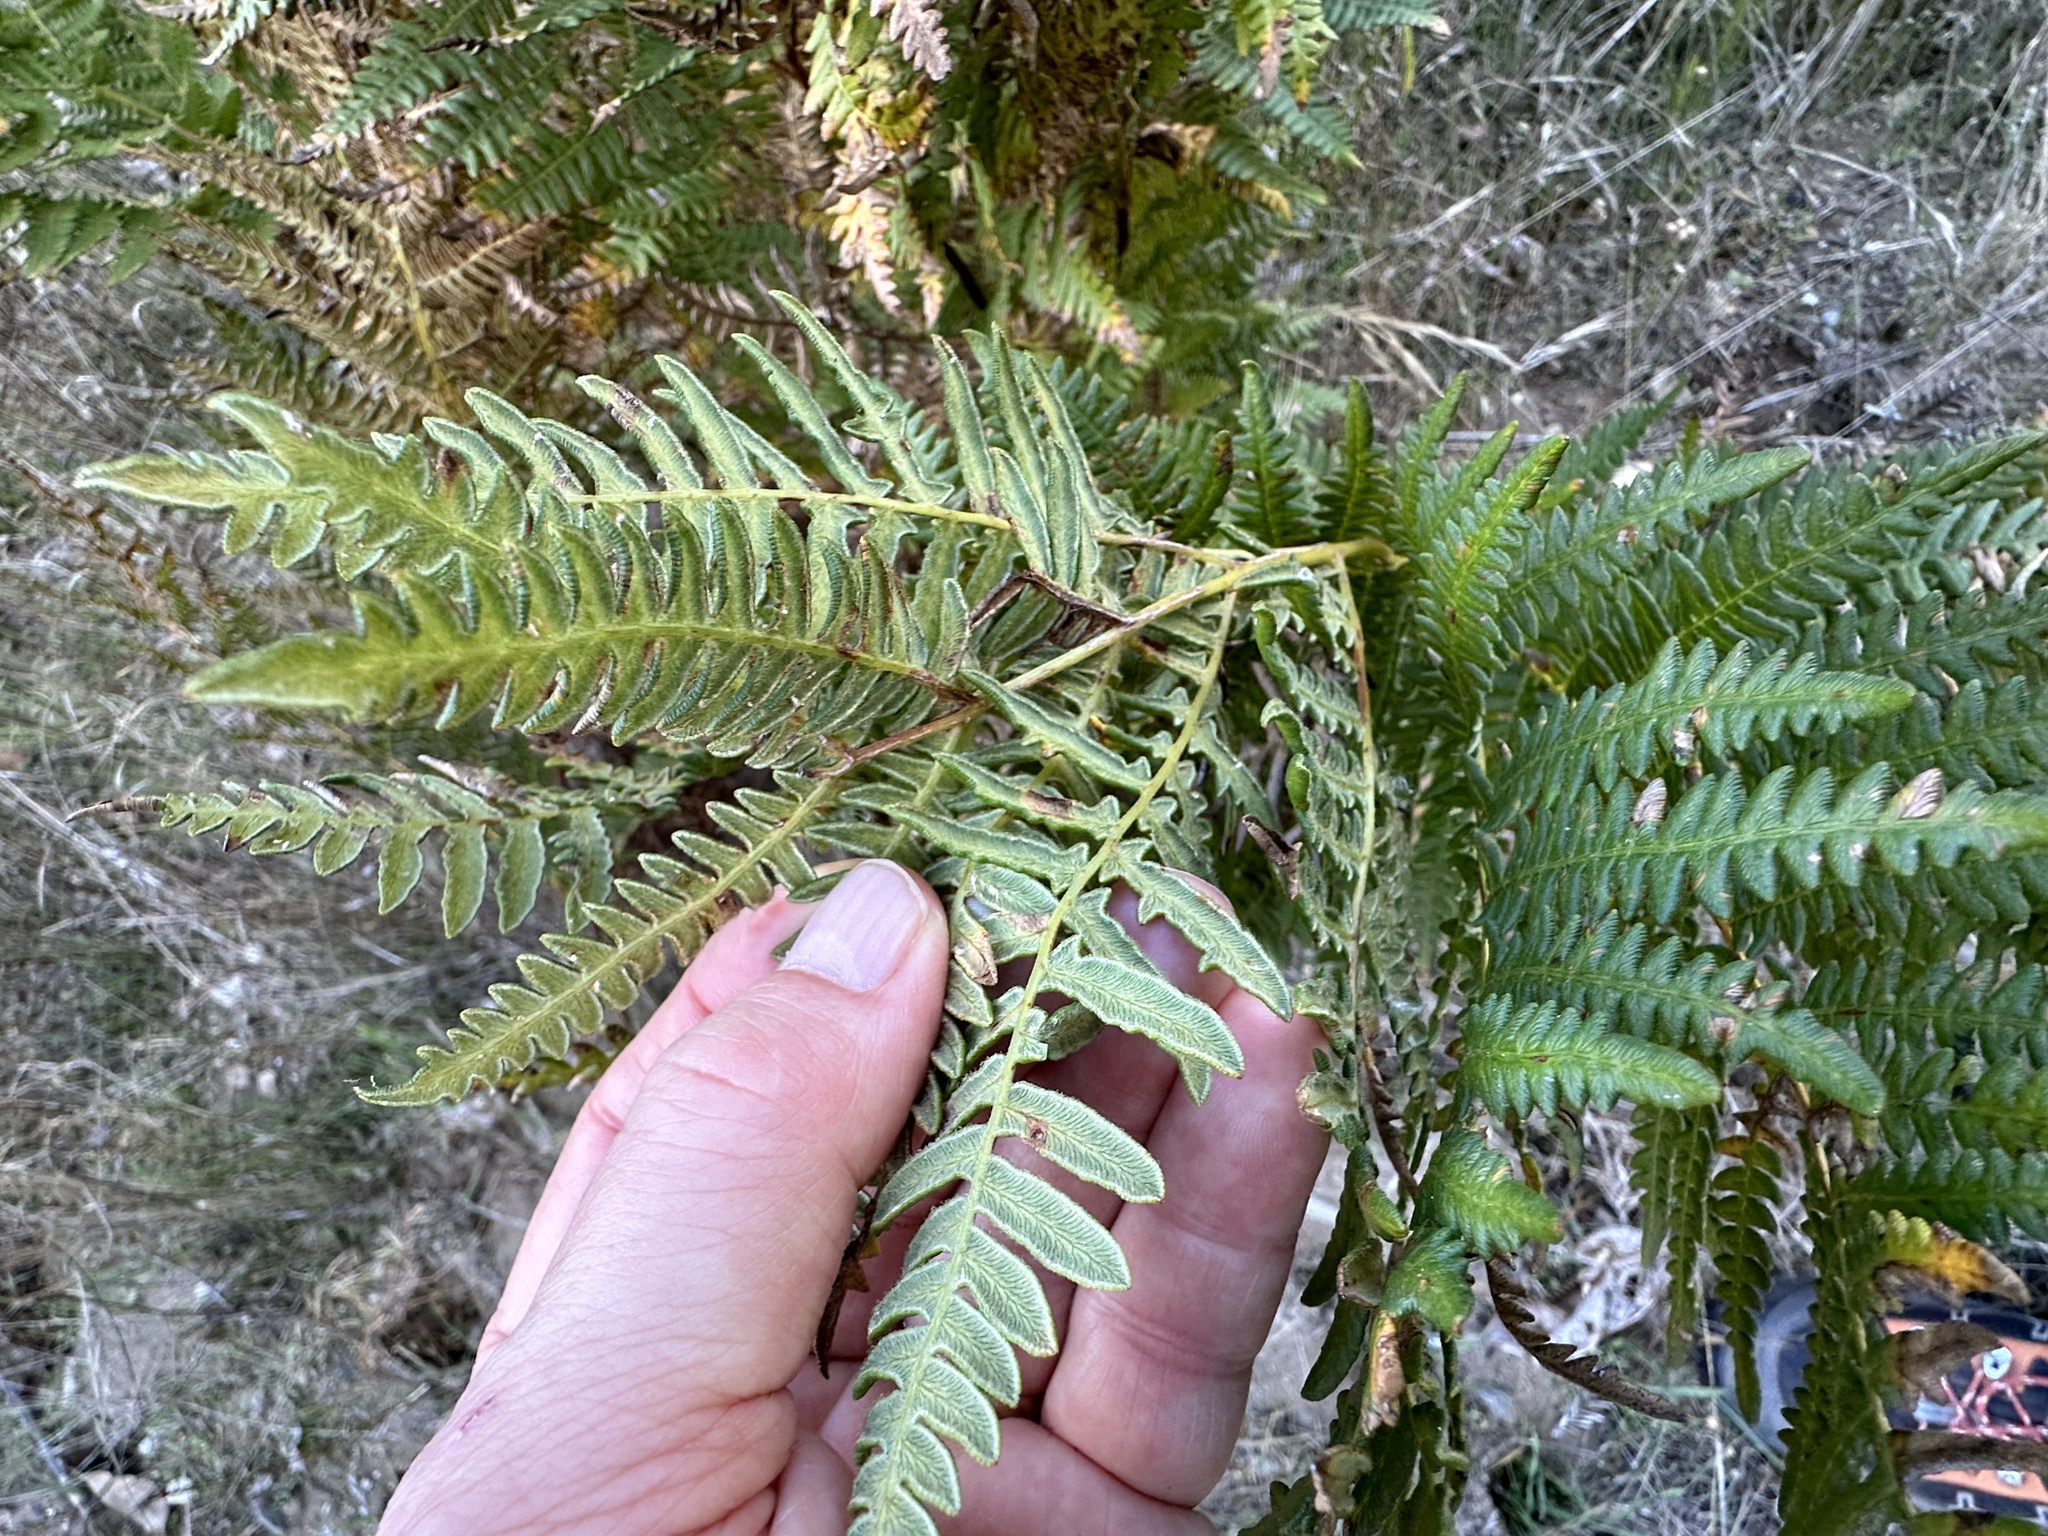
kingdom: Plantae
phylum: Tracheophyta
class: Polypodiopsida
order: Polypodiales
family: Dennstaedtiaceae
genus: Pteridium
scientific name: Pteridium aquilinum
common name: Bracken
